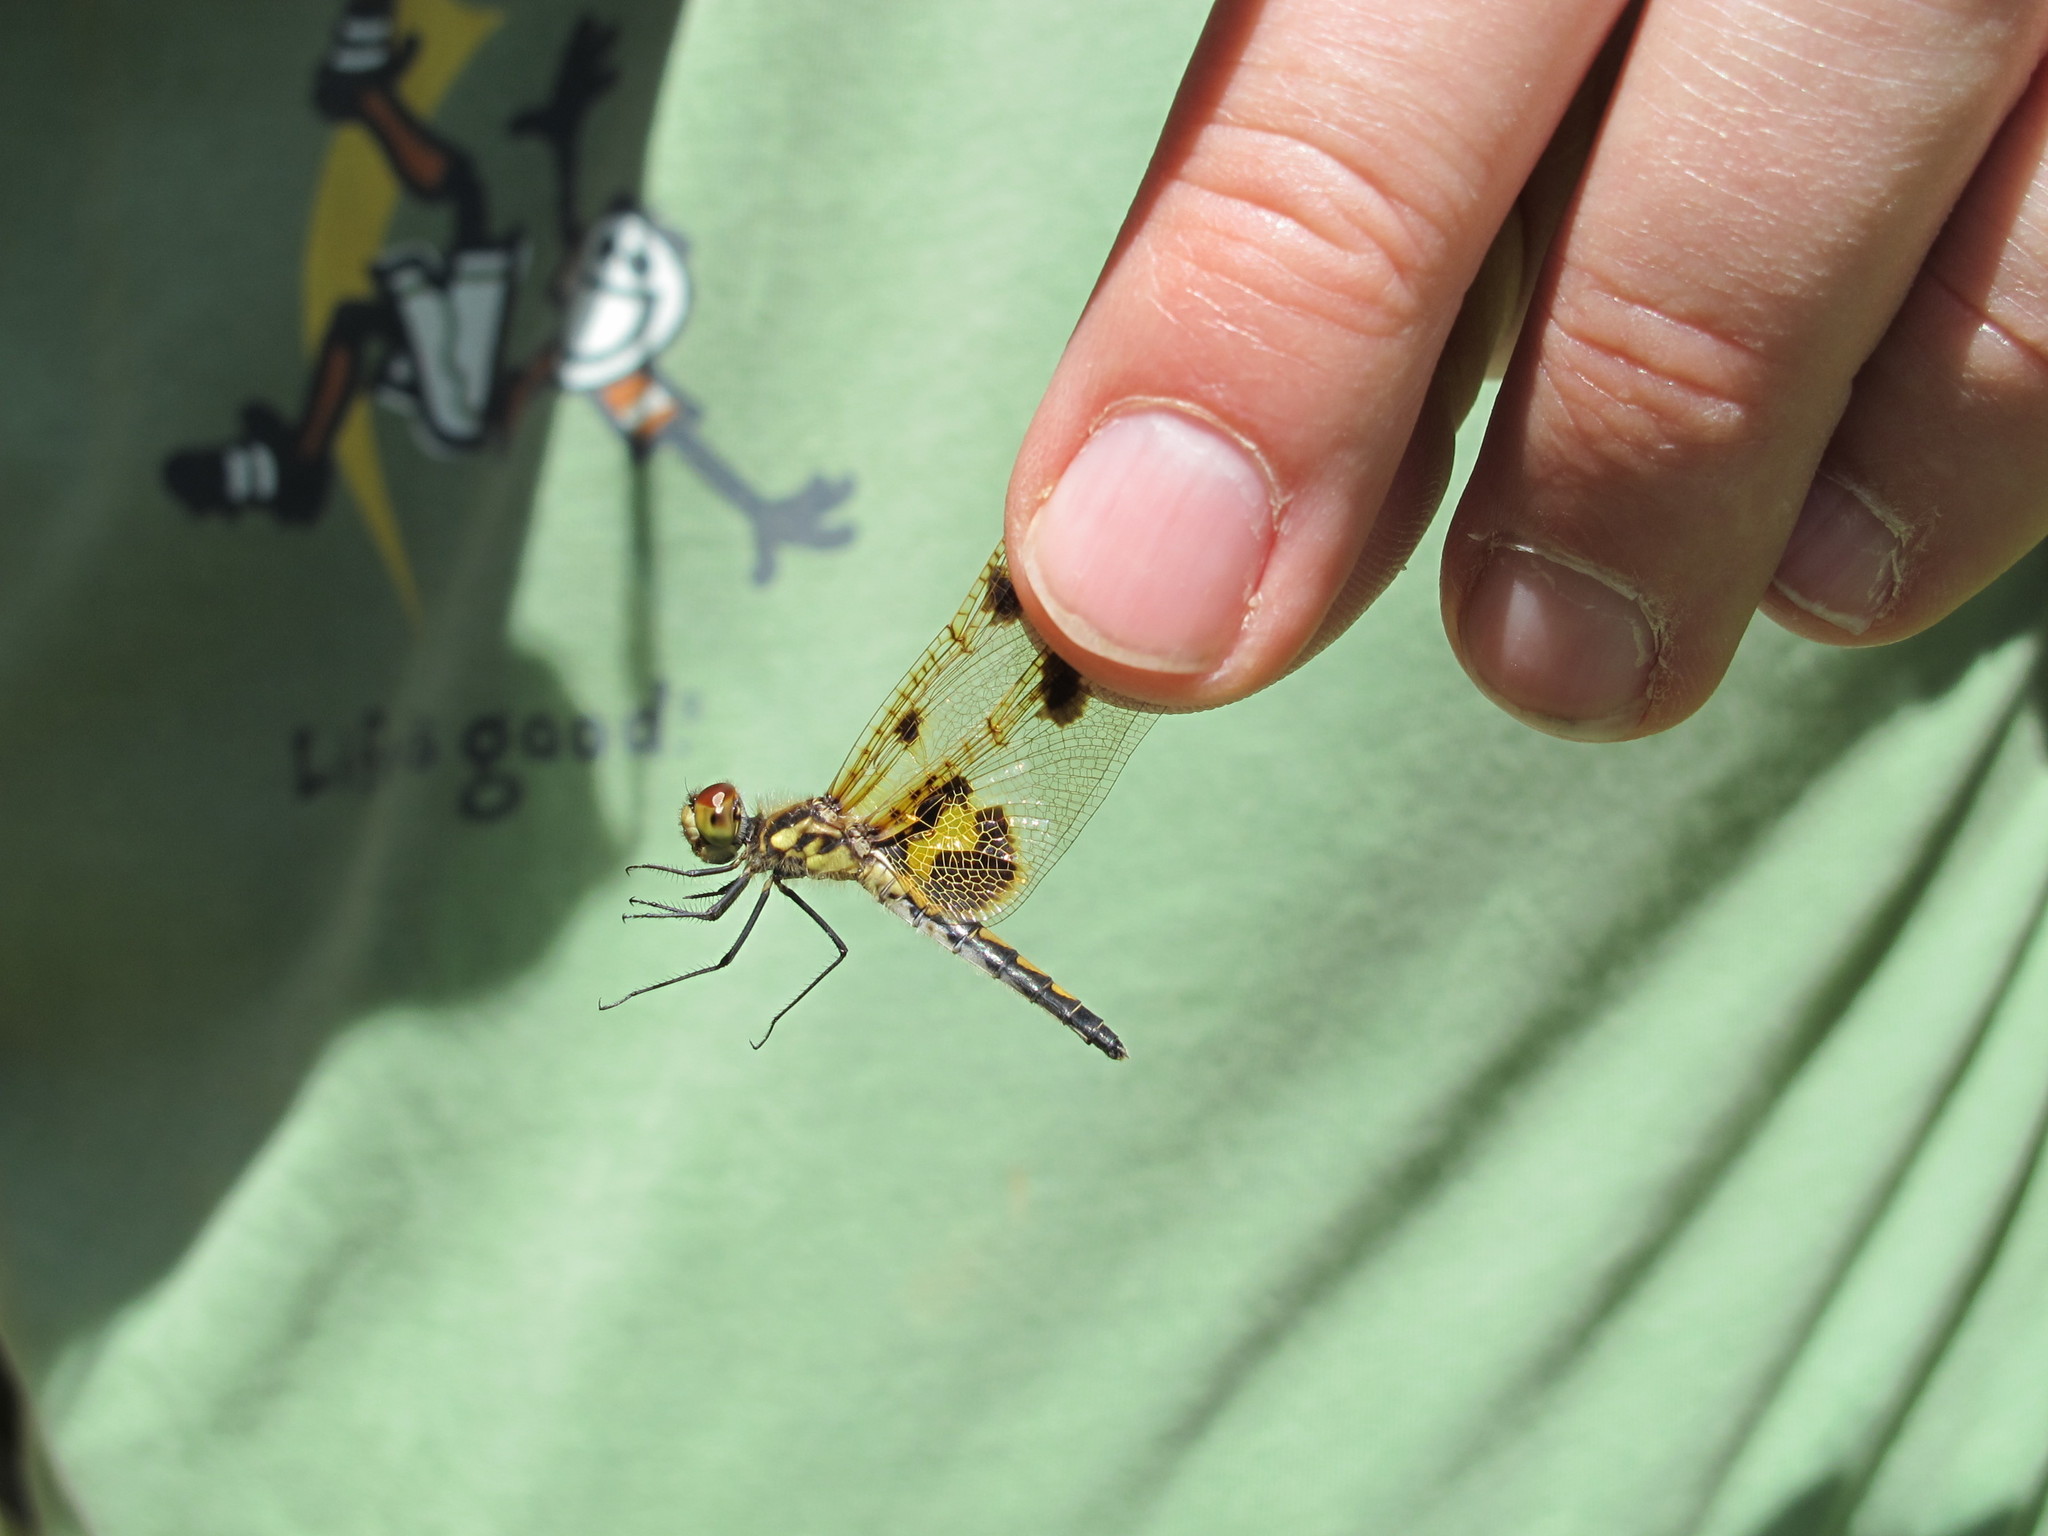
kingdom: Animalia
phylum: Arthropoda
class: Insecta
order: Odonata
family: Libellulidae
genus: Celithemis
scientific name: Celithemis elisa
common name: Calico pennant
